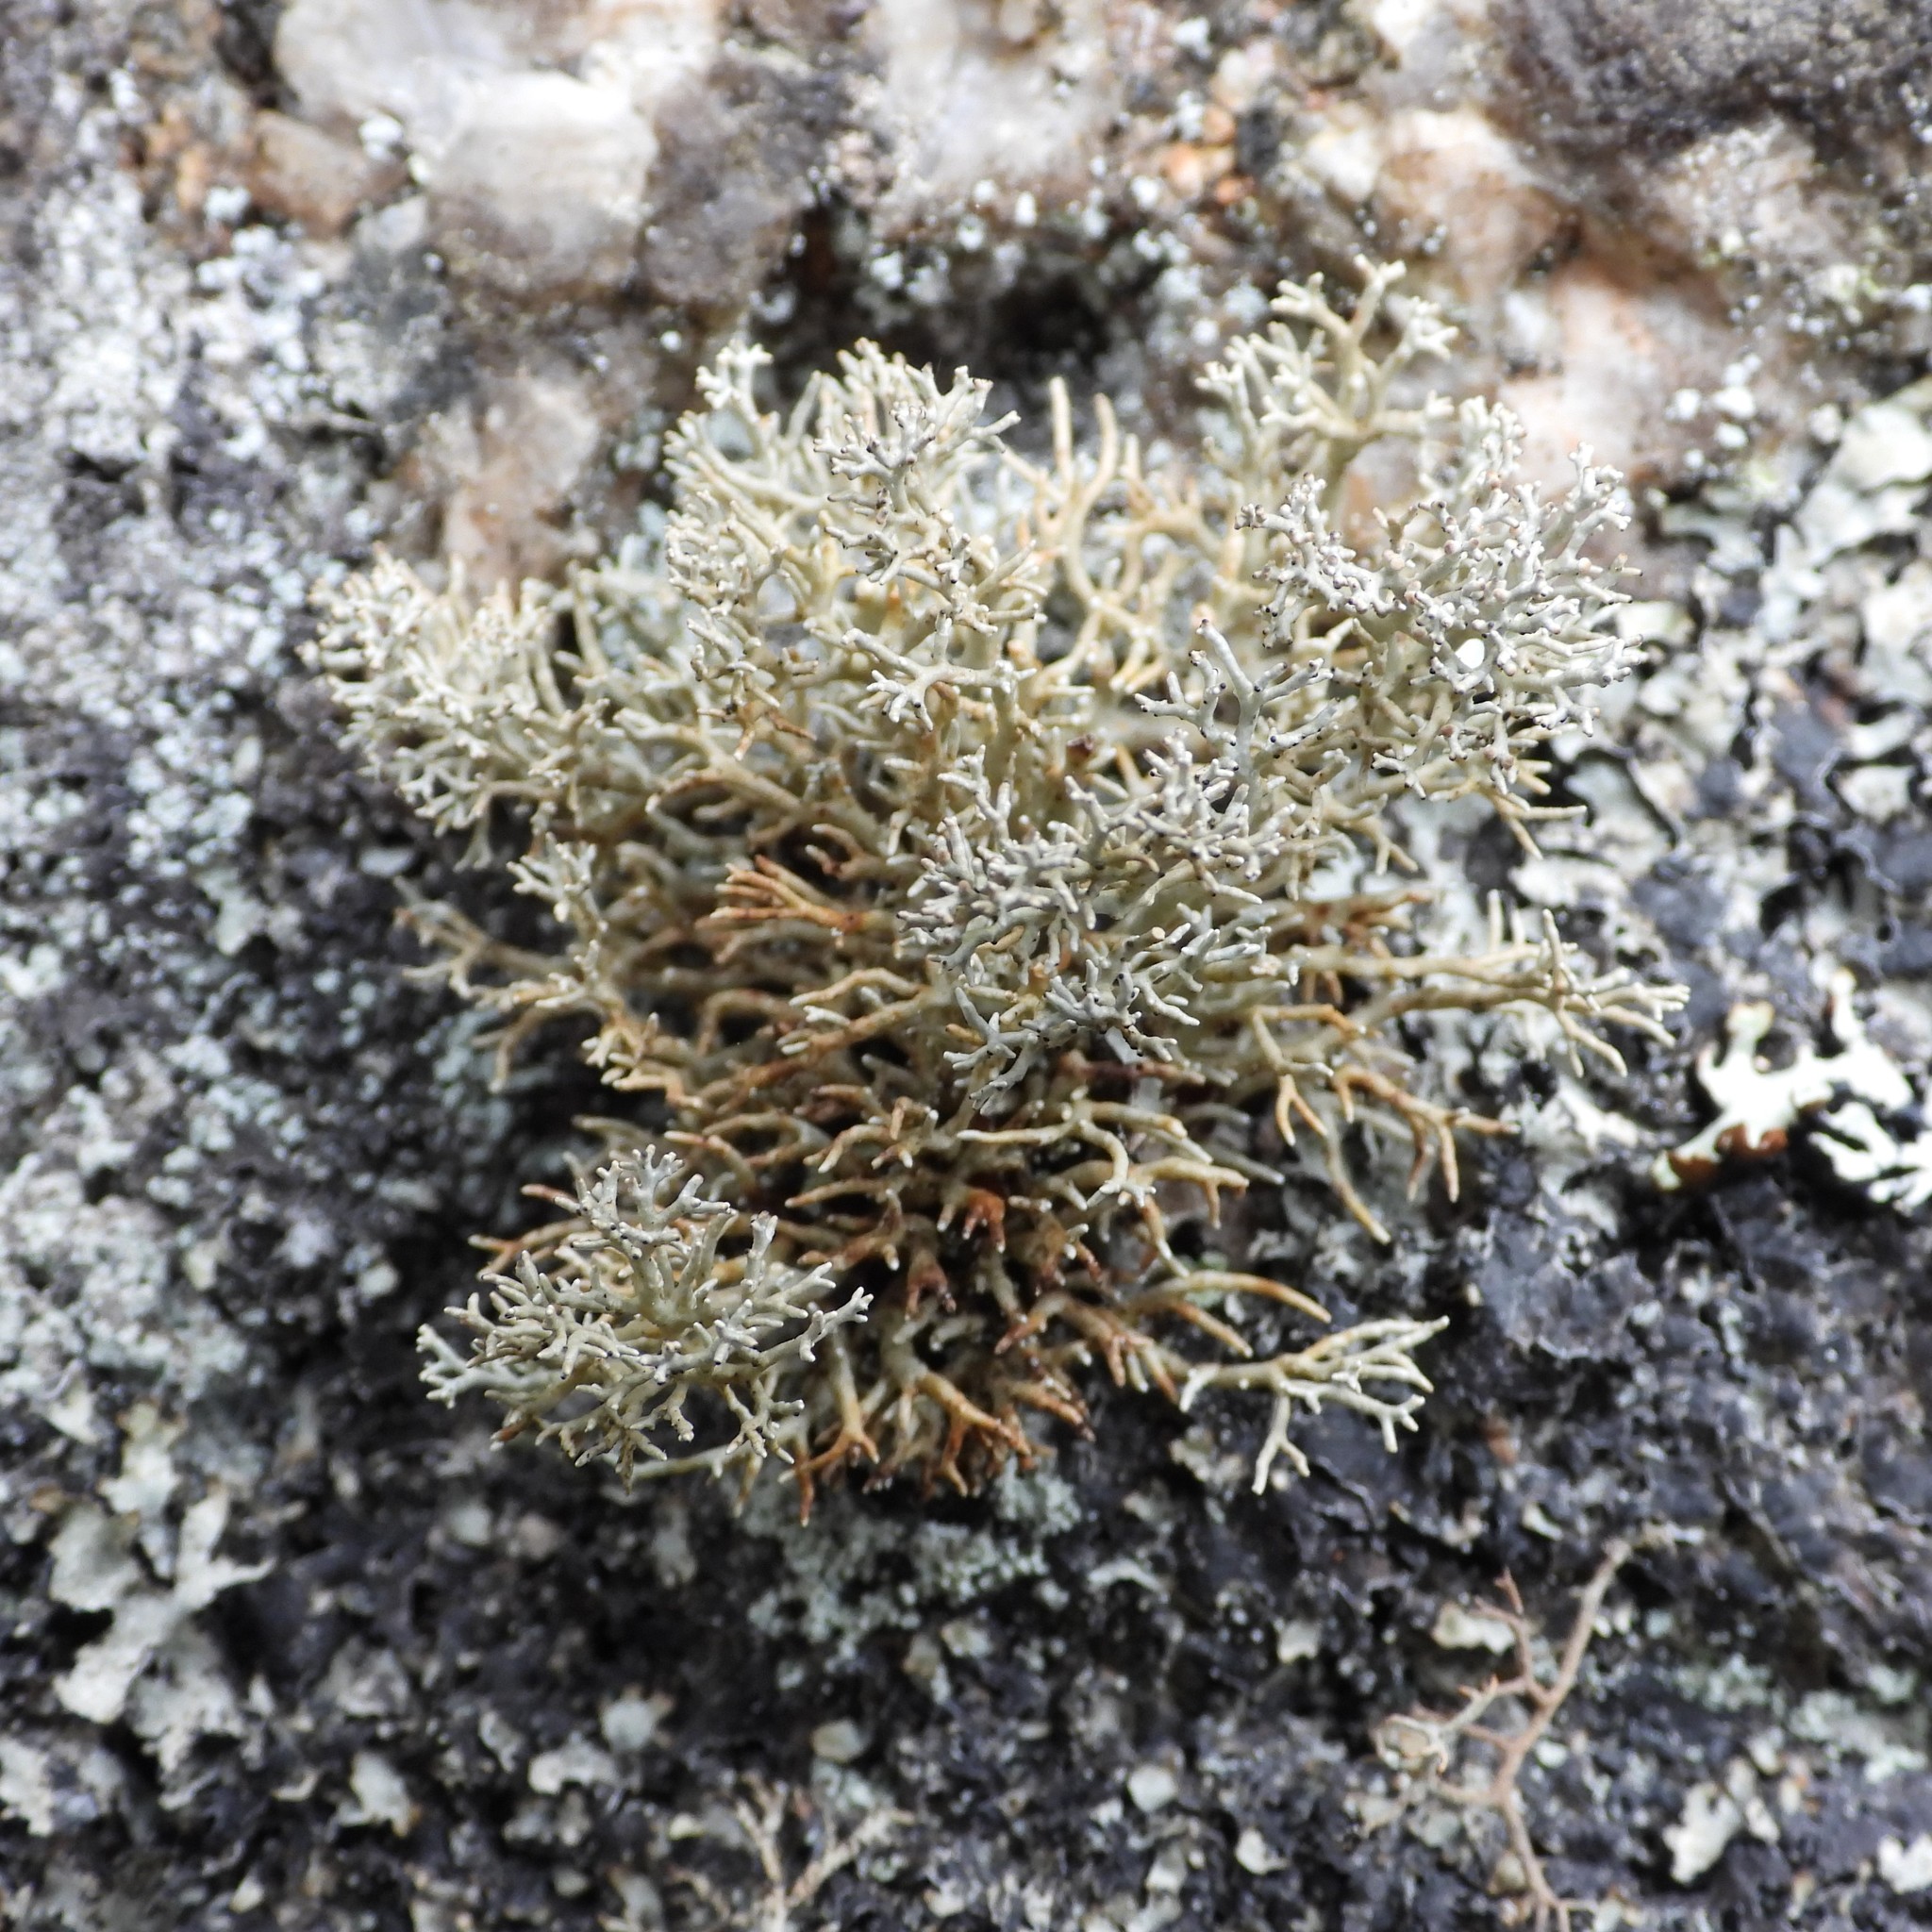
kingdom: Fungi
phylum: Ascomycota
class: Lecanoromycetes
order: Lecanorales
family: Sphaerophoraceae
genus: Sphaerophorus
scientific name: Sphaerophorus fragilis
